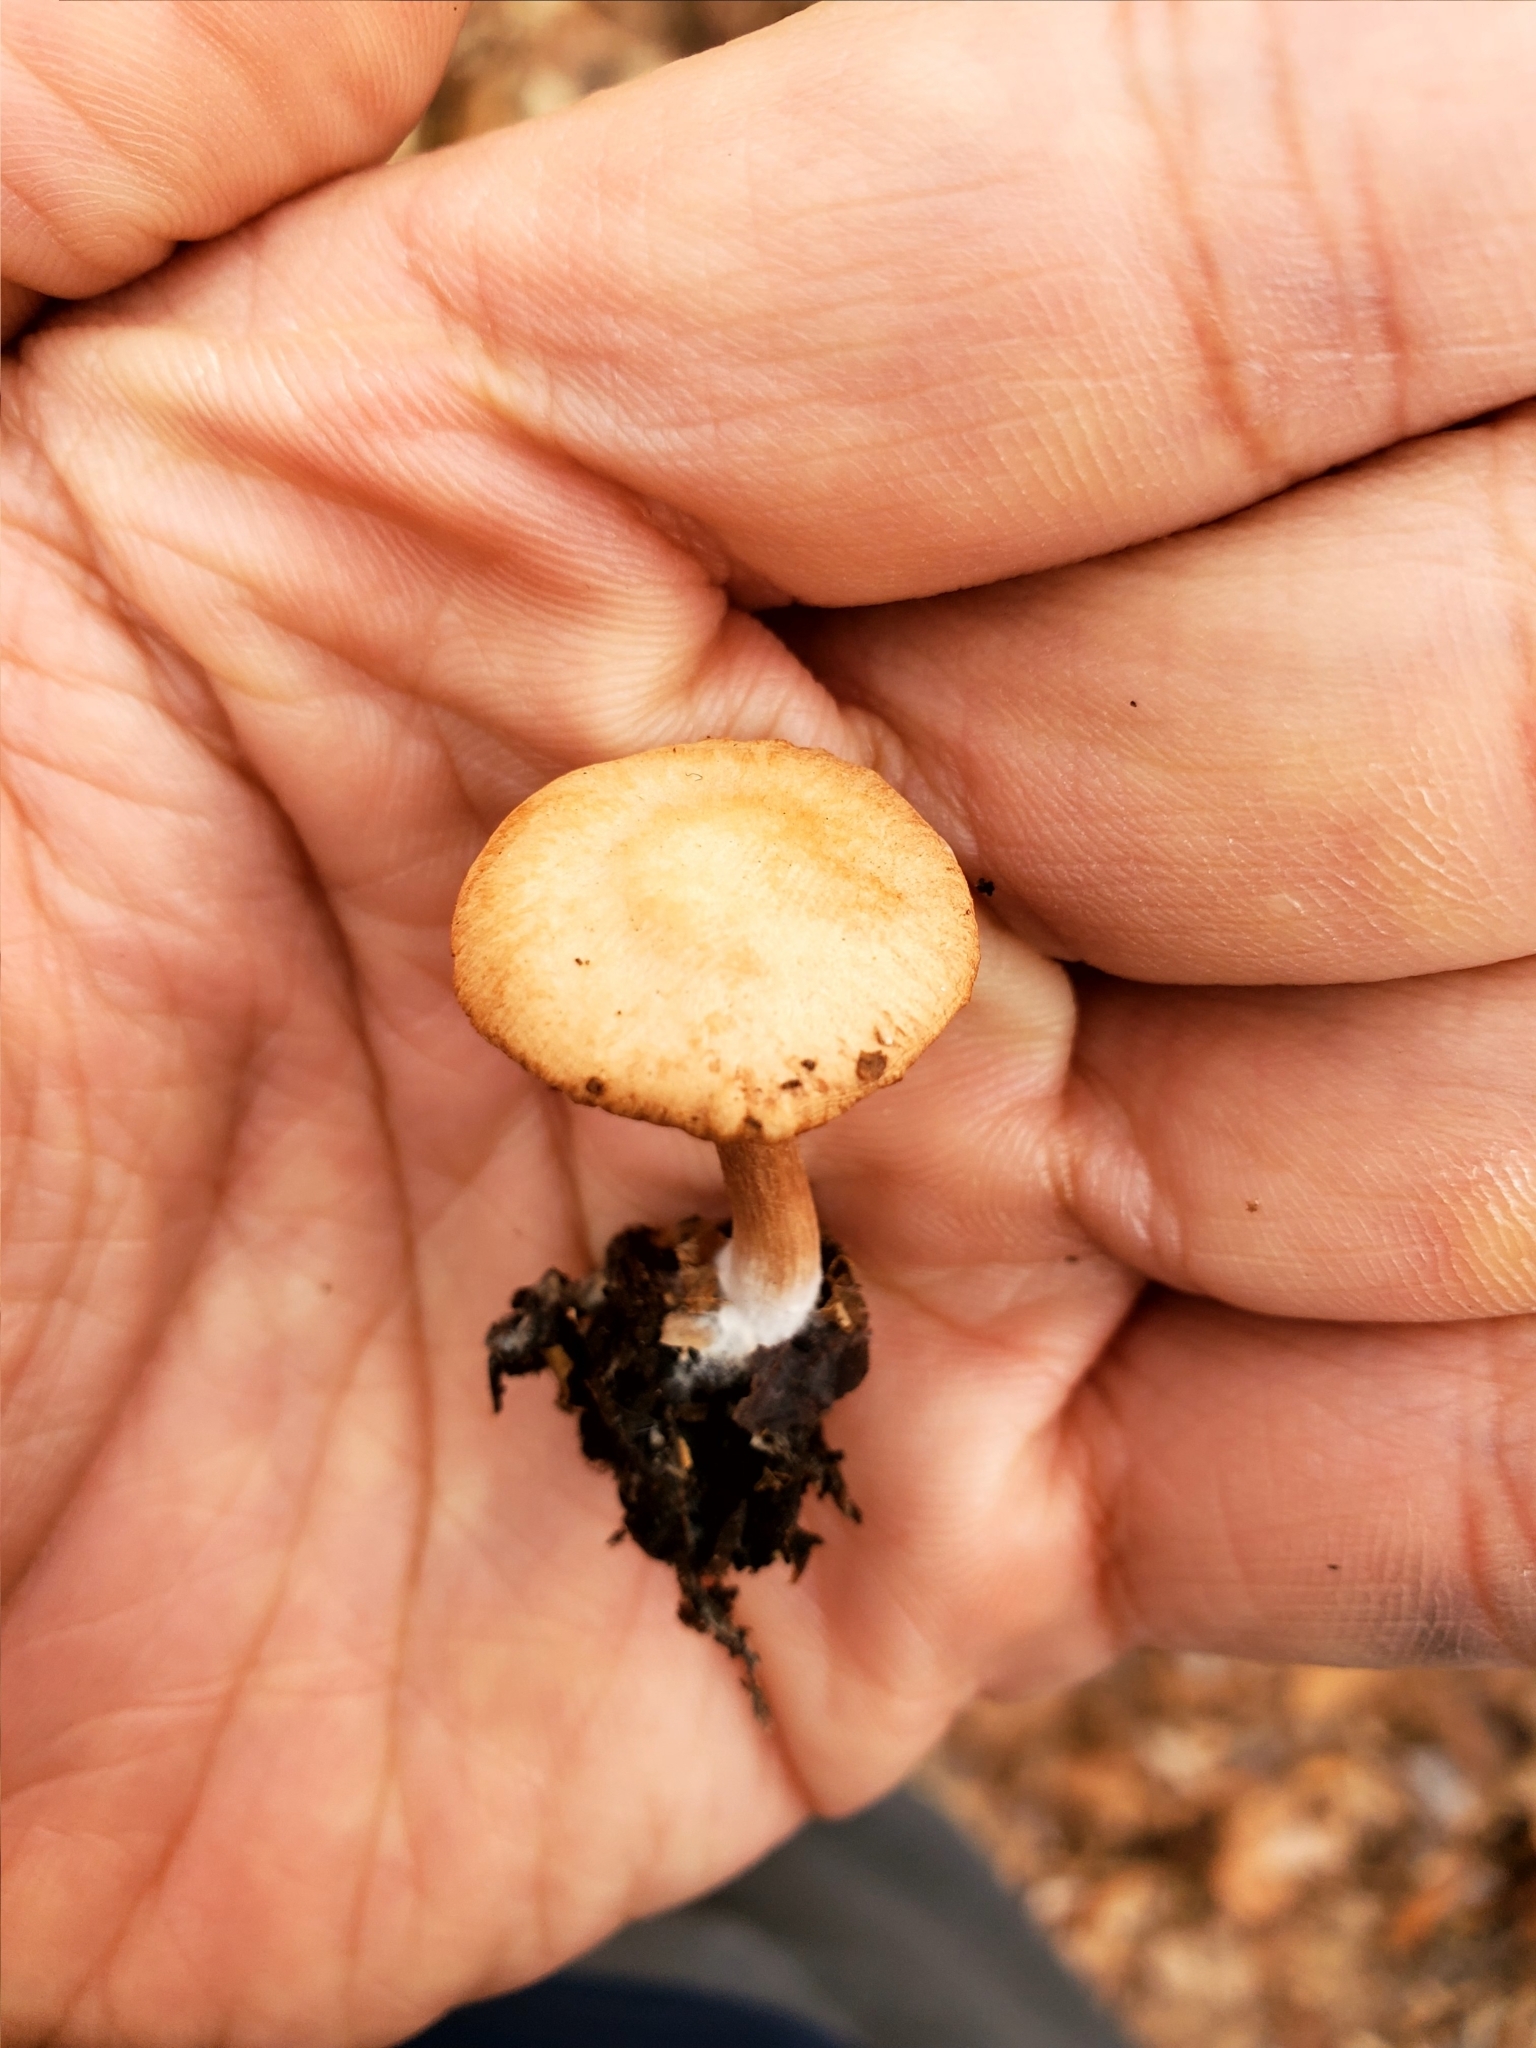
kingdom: Fungi
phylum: Basidiomycota
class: Agaricomycetes
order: Agaricales
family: Tubariaceae
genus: Tubaria
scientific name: Tubaria furfuracea
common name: Scurfy twiglet
